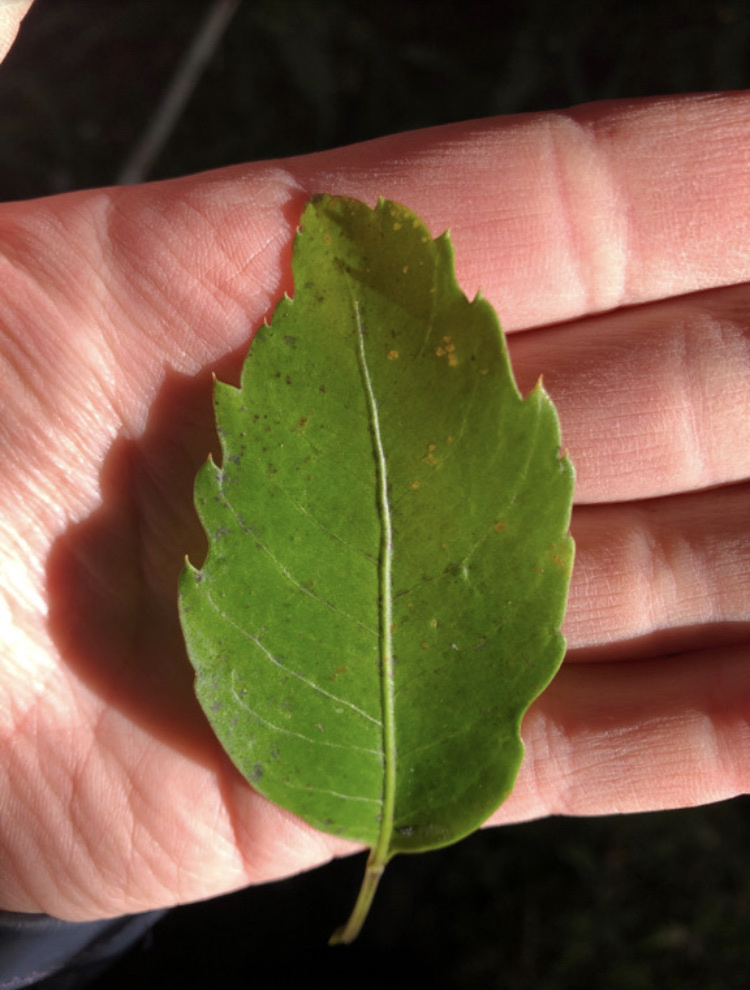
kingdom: Plantae
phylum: Tracheophyta
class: Magnoliopsida
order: Apiales
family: Araliaceae
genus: Raukaua
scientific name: Raukaua simplex
